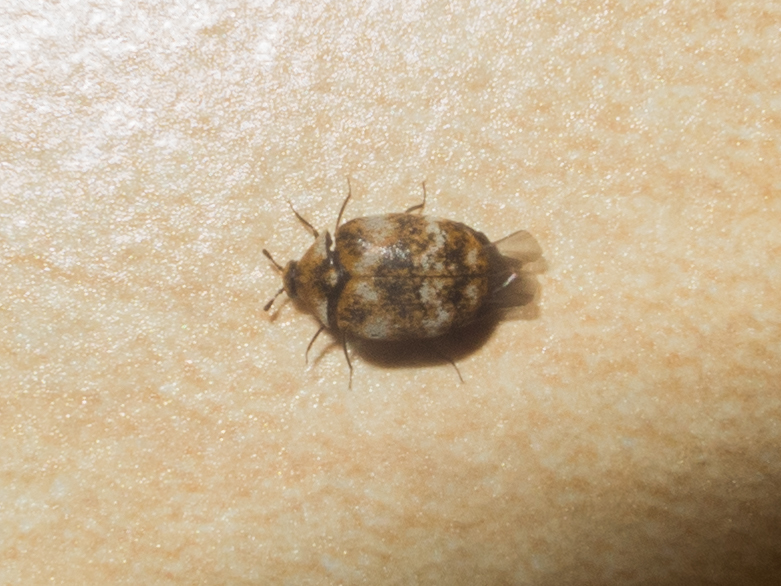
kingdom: Animalia
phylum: Arthropoda
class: Insecta
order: Coleoptera
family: Dermestidae
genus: Anthrenus
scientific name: Anthrenus verbasci
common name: Varied carpet beetle
